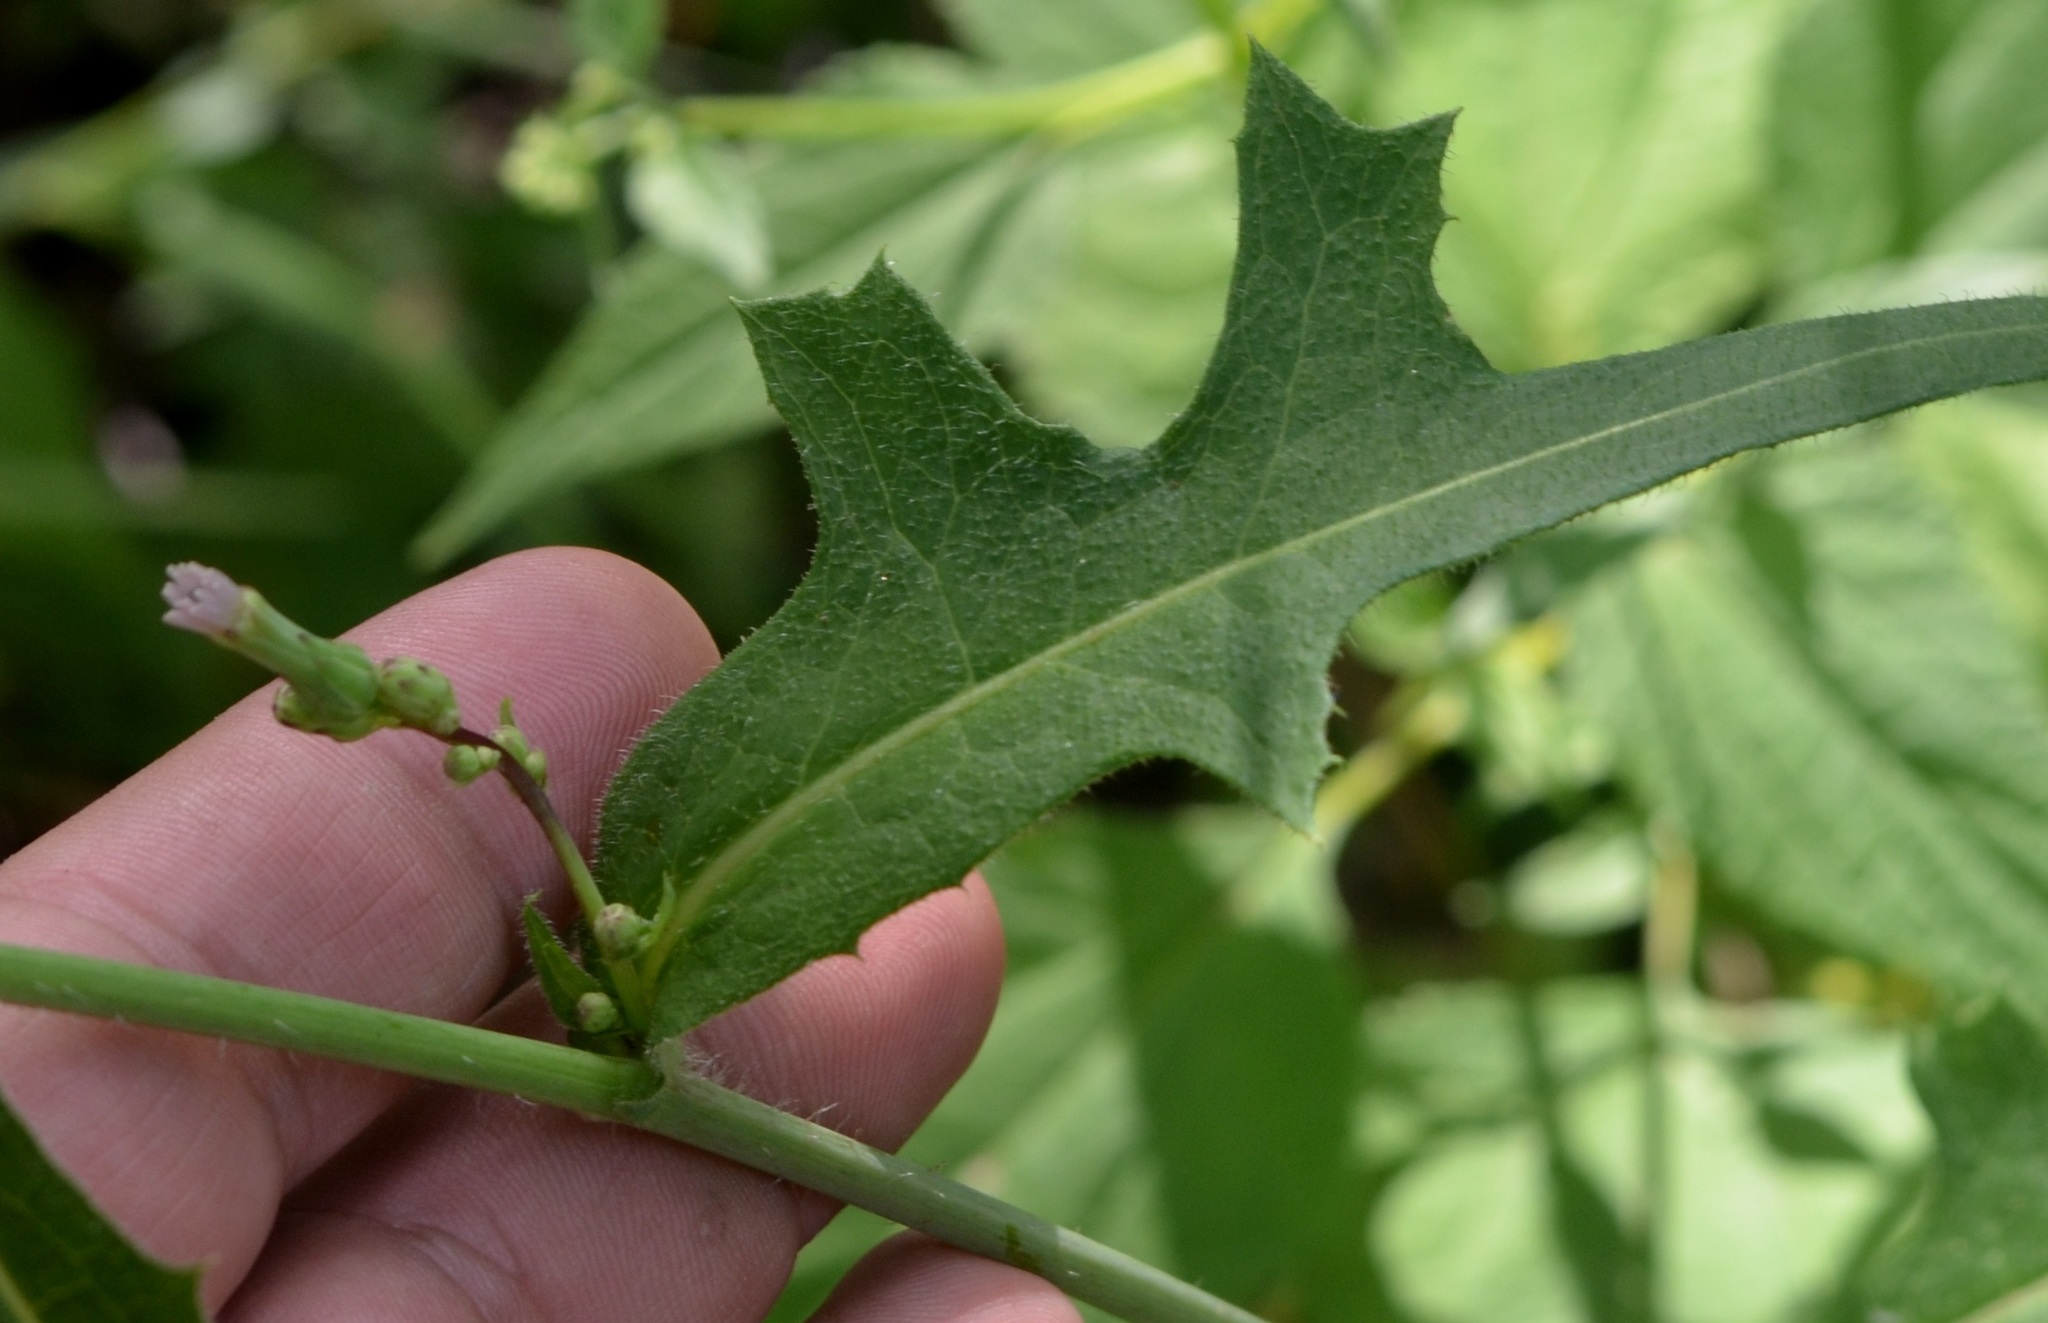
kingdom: Plantae
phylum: Tracheophyta
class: Magnoliopsida
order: Asterales
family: Asteraceae
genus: Lactuca
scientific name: Lactuca biennis
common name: Blue wood lettuce
